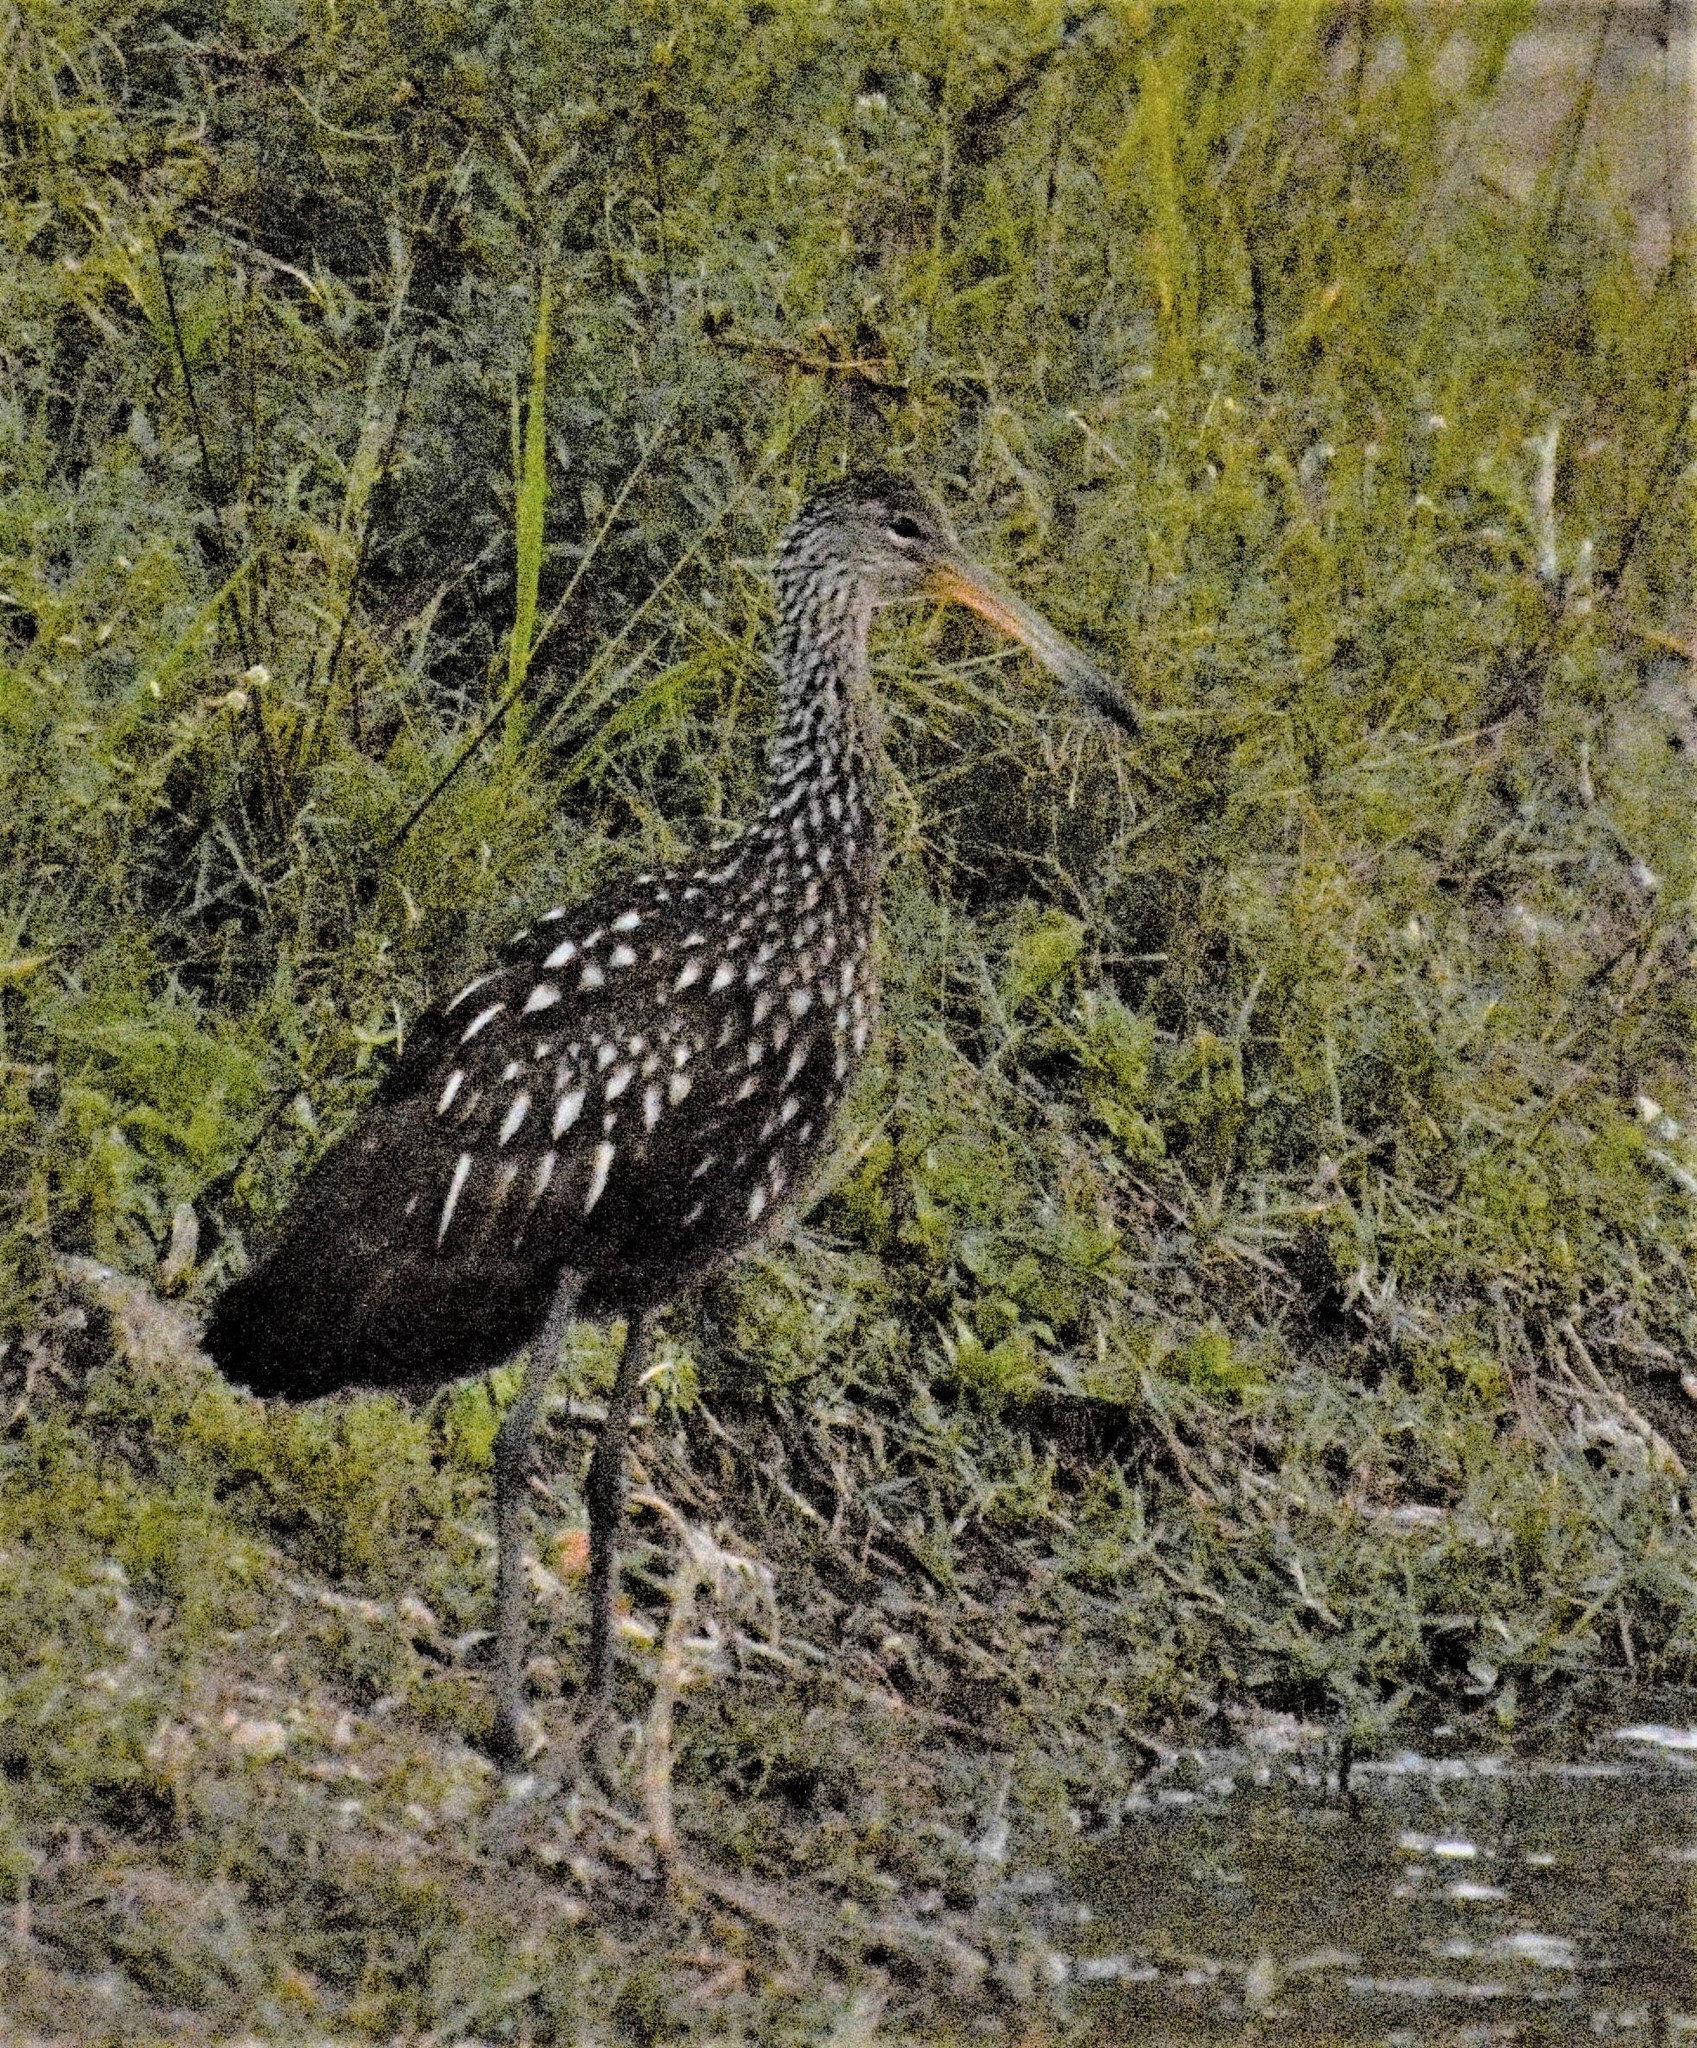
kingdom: Animalia
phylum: Chordata
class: Aves
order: Gruiformes
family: Aramidae
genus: Aramus
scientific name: Aramus guarauna
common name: Limpkin
